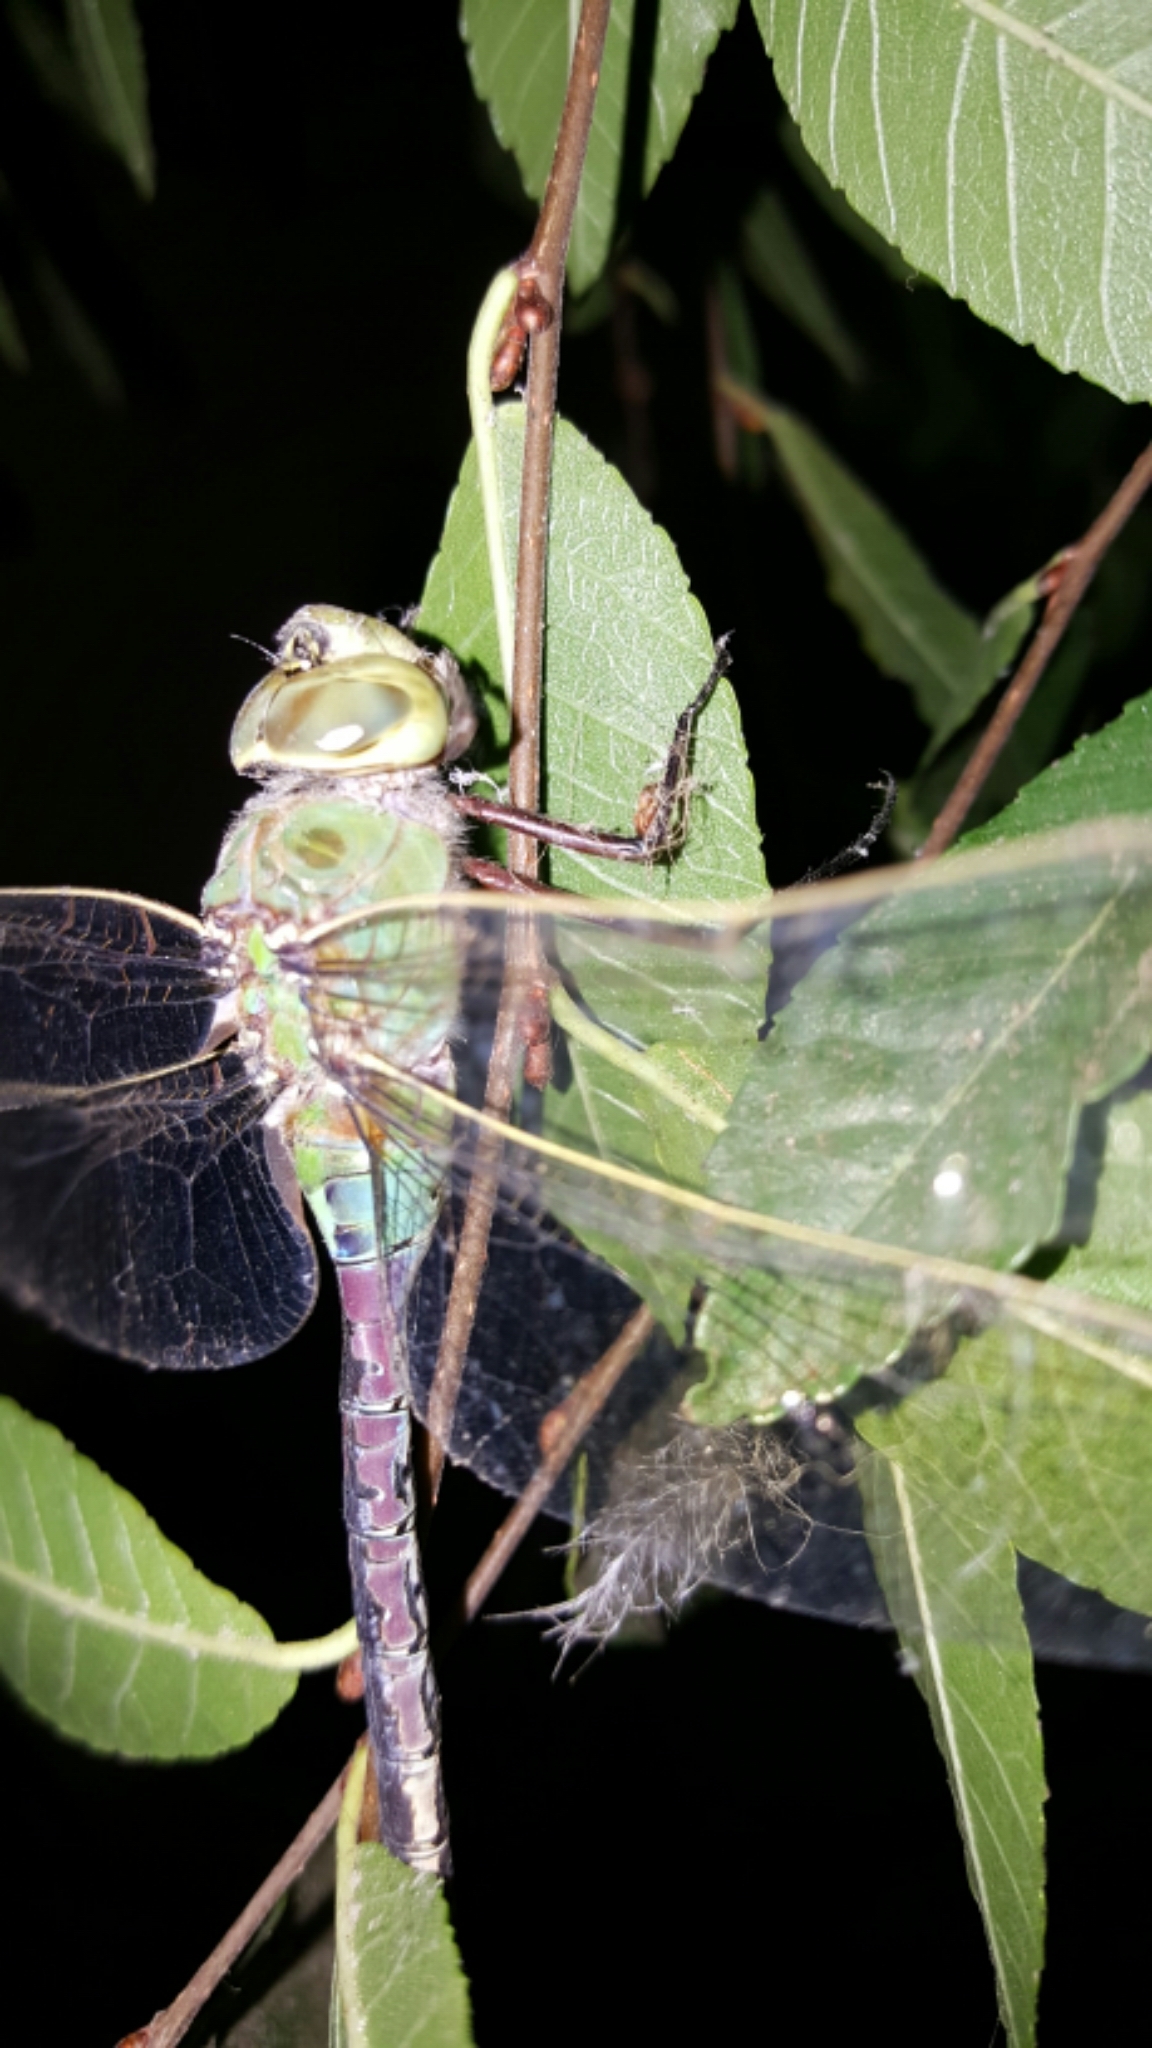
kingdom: Animalia
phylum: Arthropoda
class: Insecta
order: Odonata
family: Aeshnidae
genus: Anax
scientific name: Anax junius
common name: Common green darner
